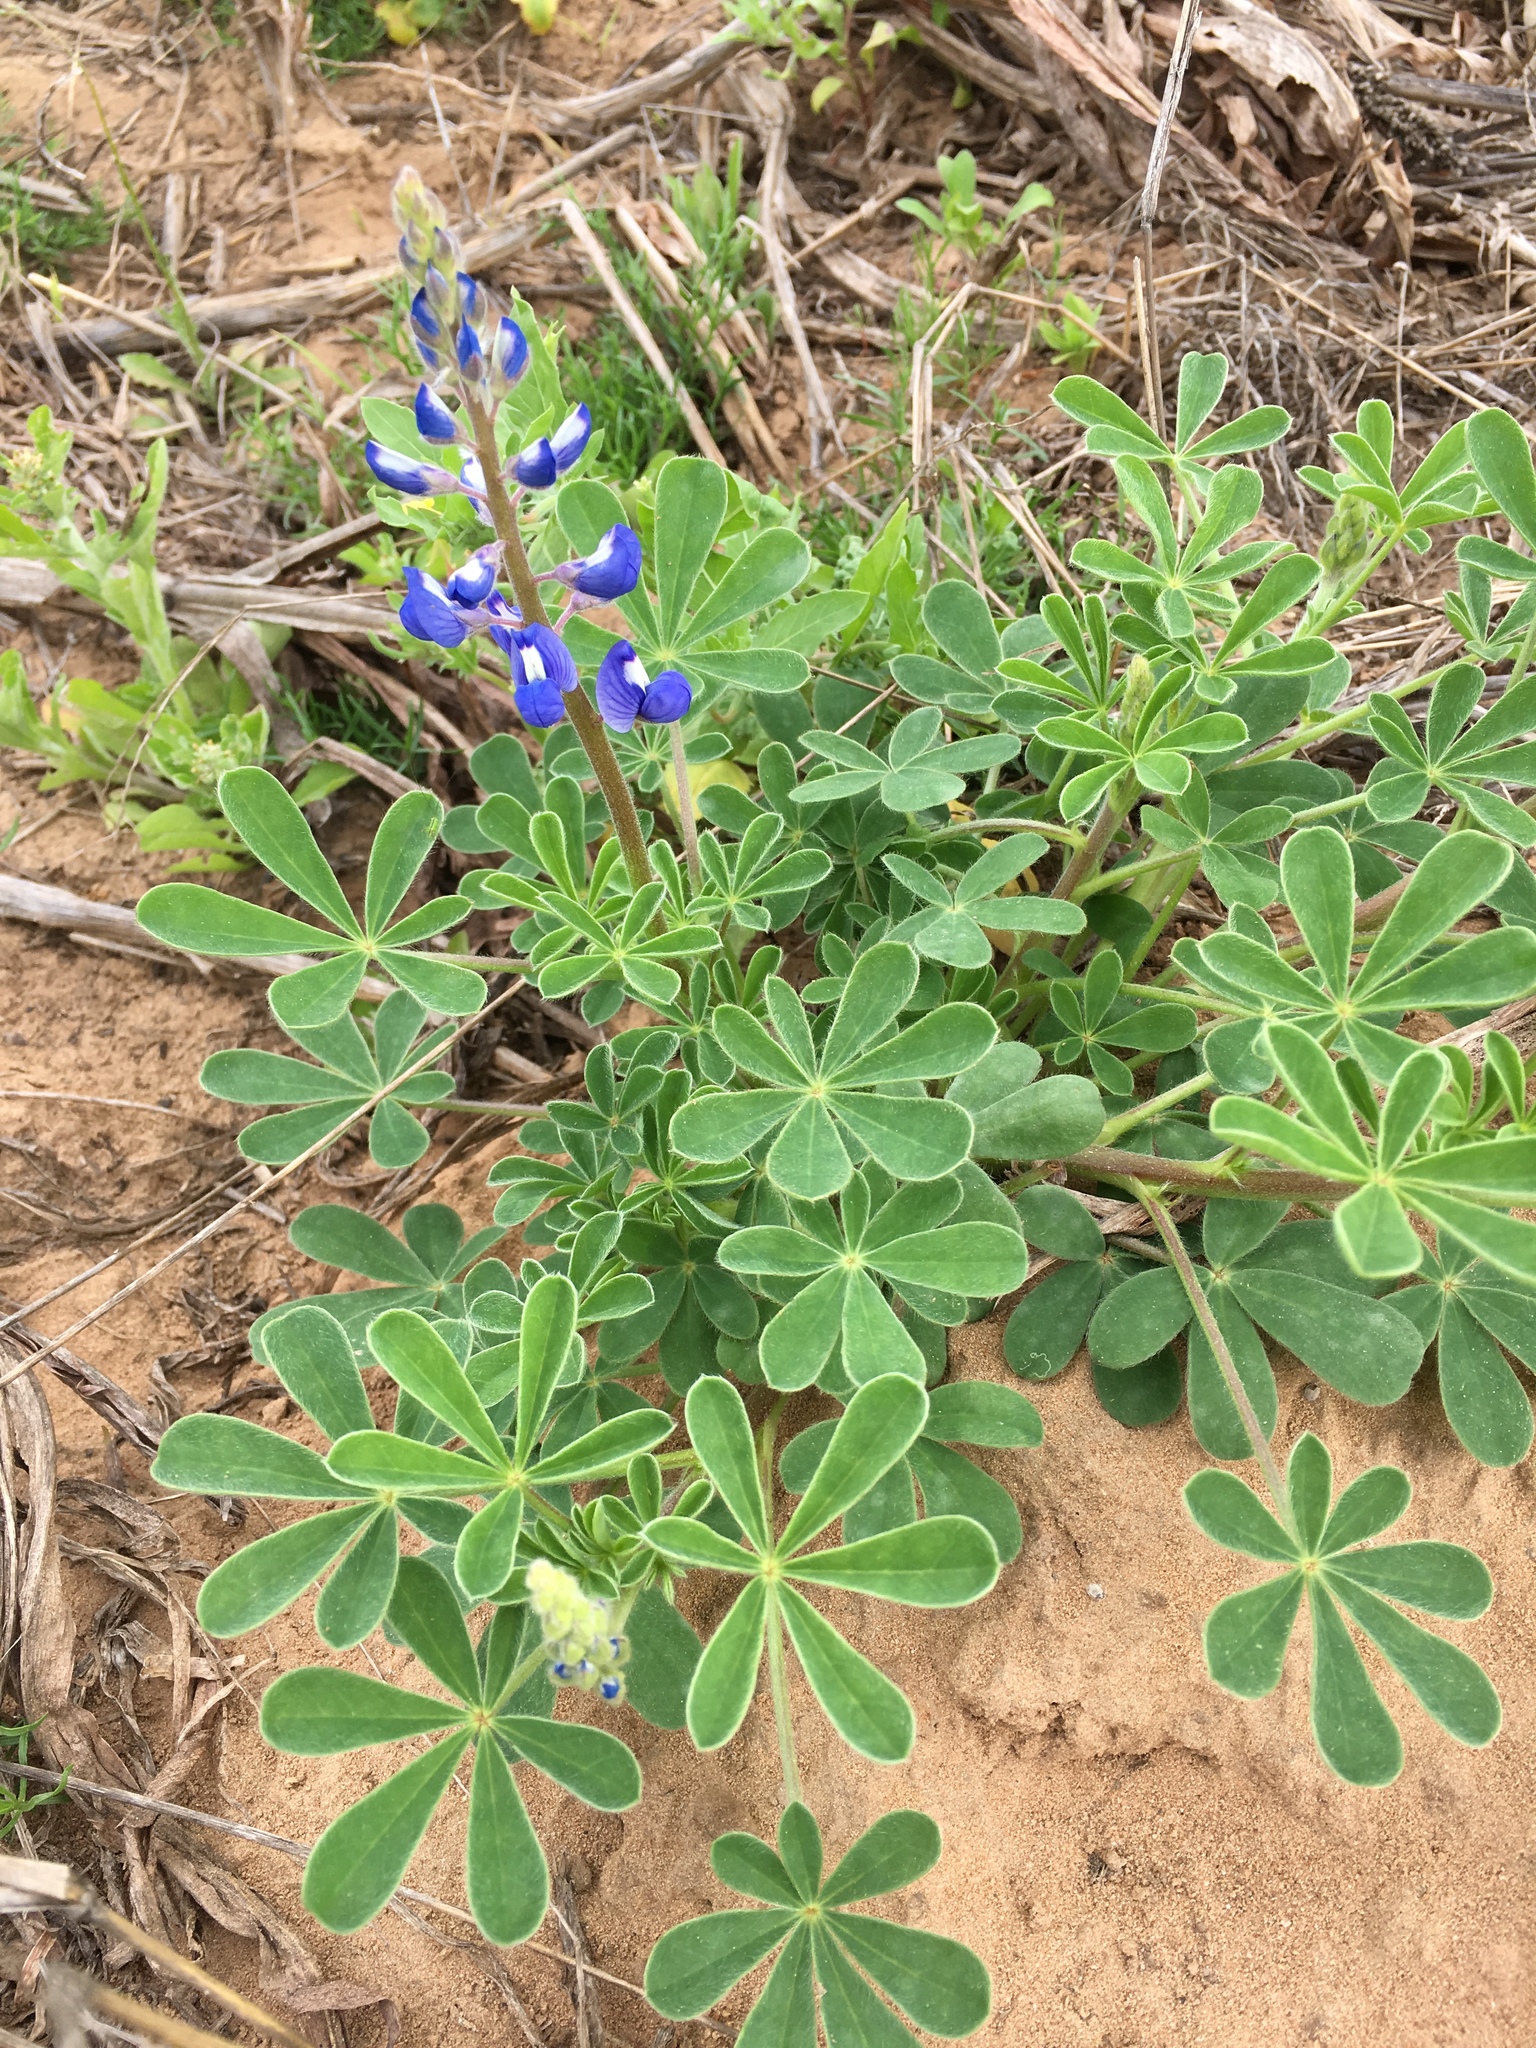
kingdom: Plantae
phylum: Tracheophyta
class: Magnoliopsida
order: Fabales
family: Fabaceae
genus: Lupinus
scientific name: Lupinus subcarnosus
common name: Texas bluebonnet
